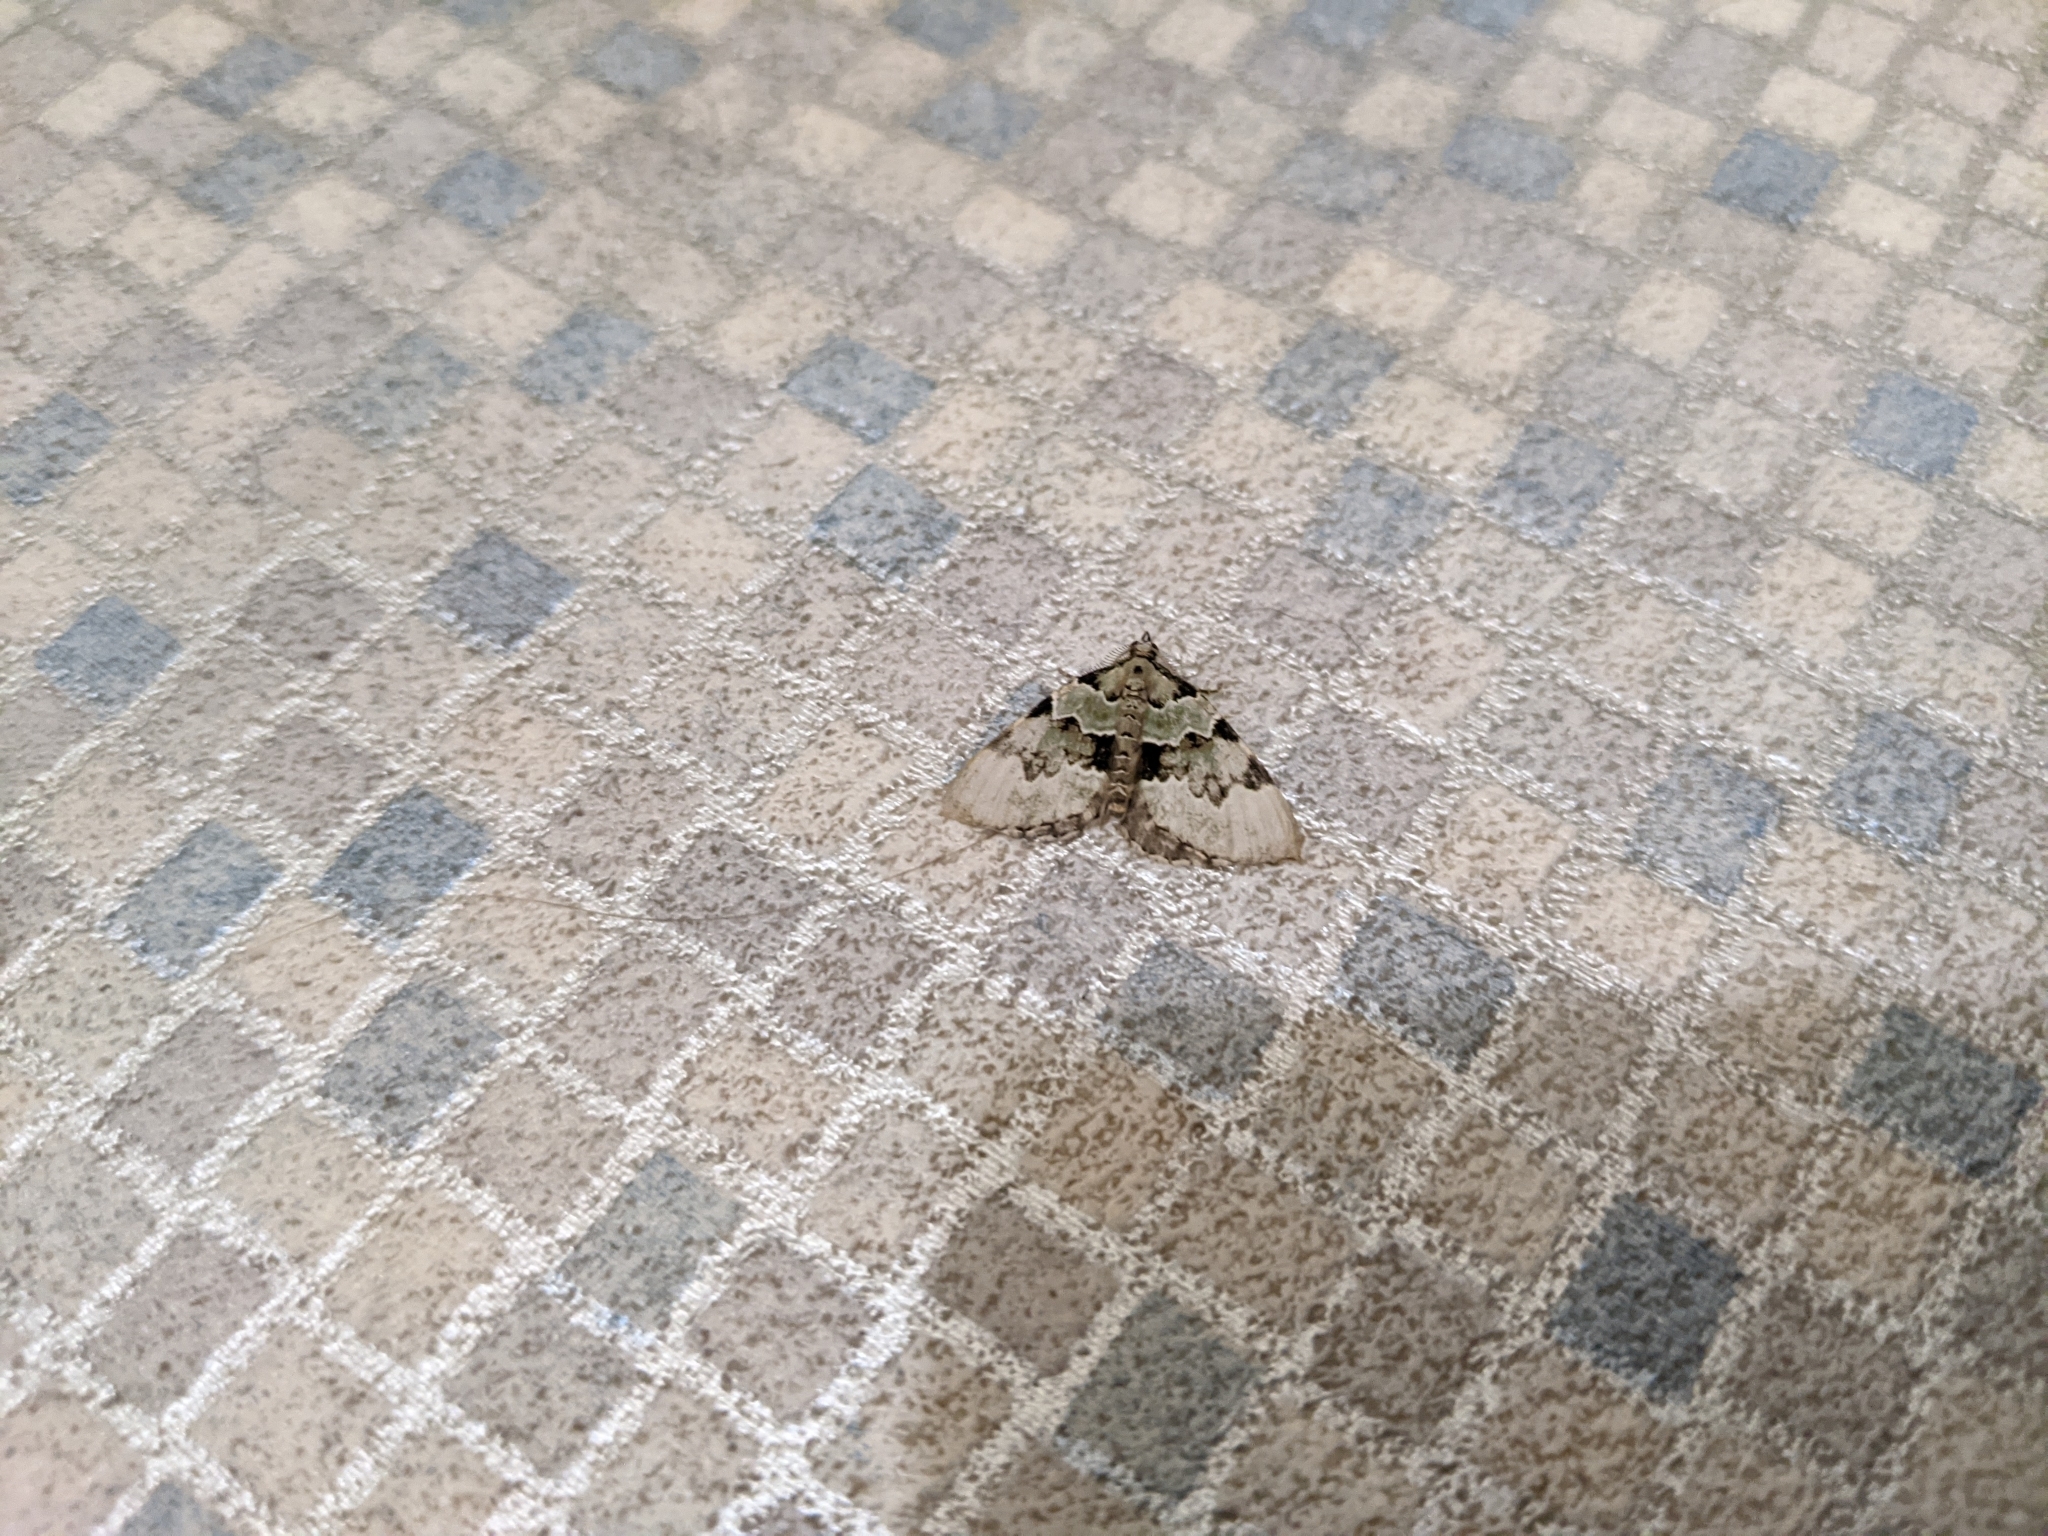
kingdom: Animalia
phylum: Arthropoda
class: Insecta
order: Lepidoptera
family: Geometridae
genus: Colostygia
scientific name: Colostygia pectinataria
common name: Green carpet
